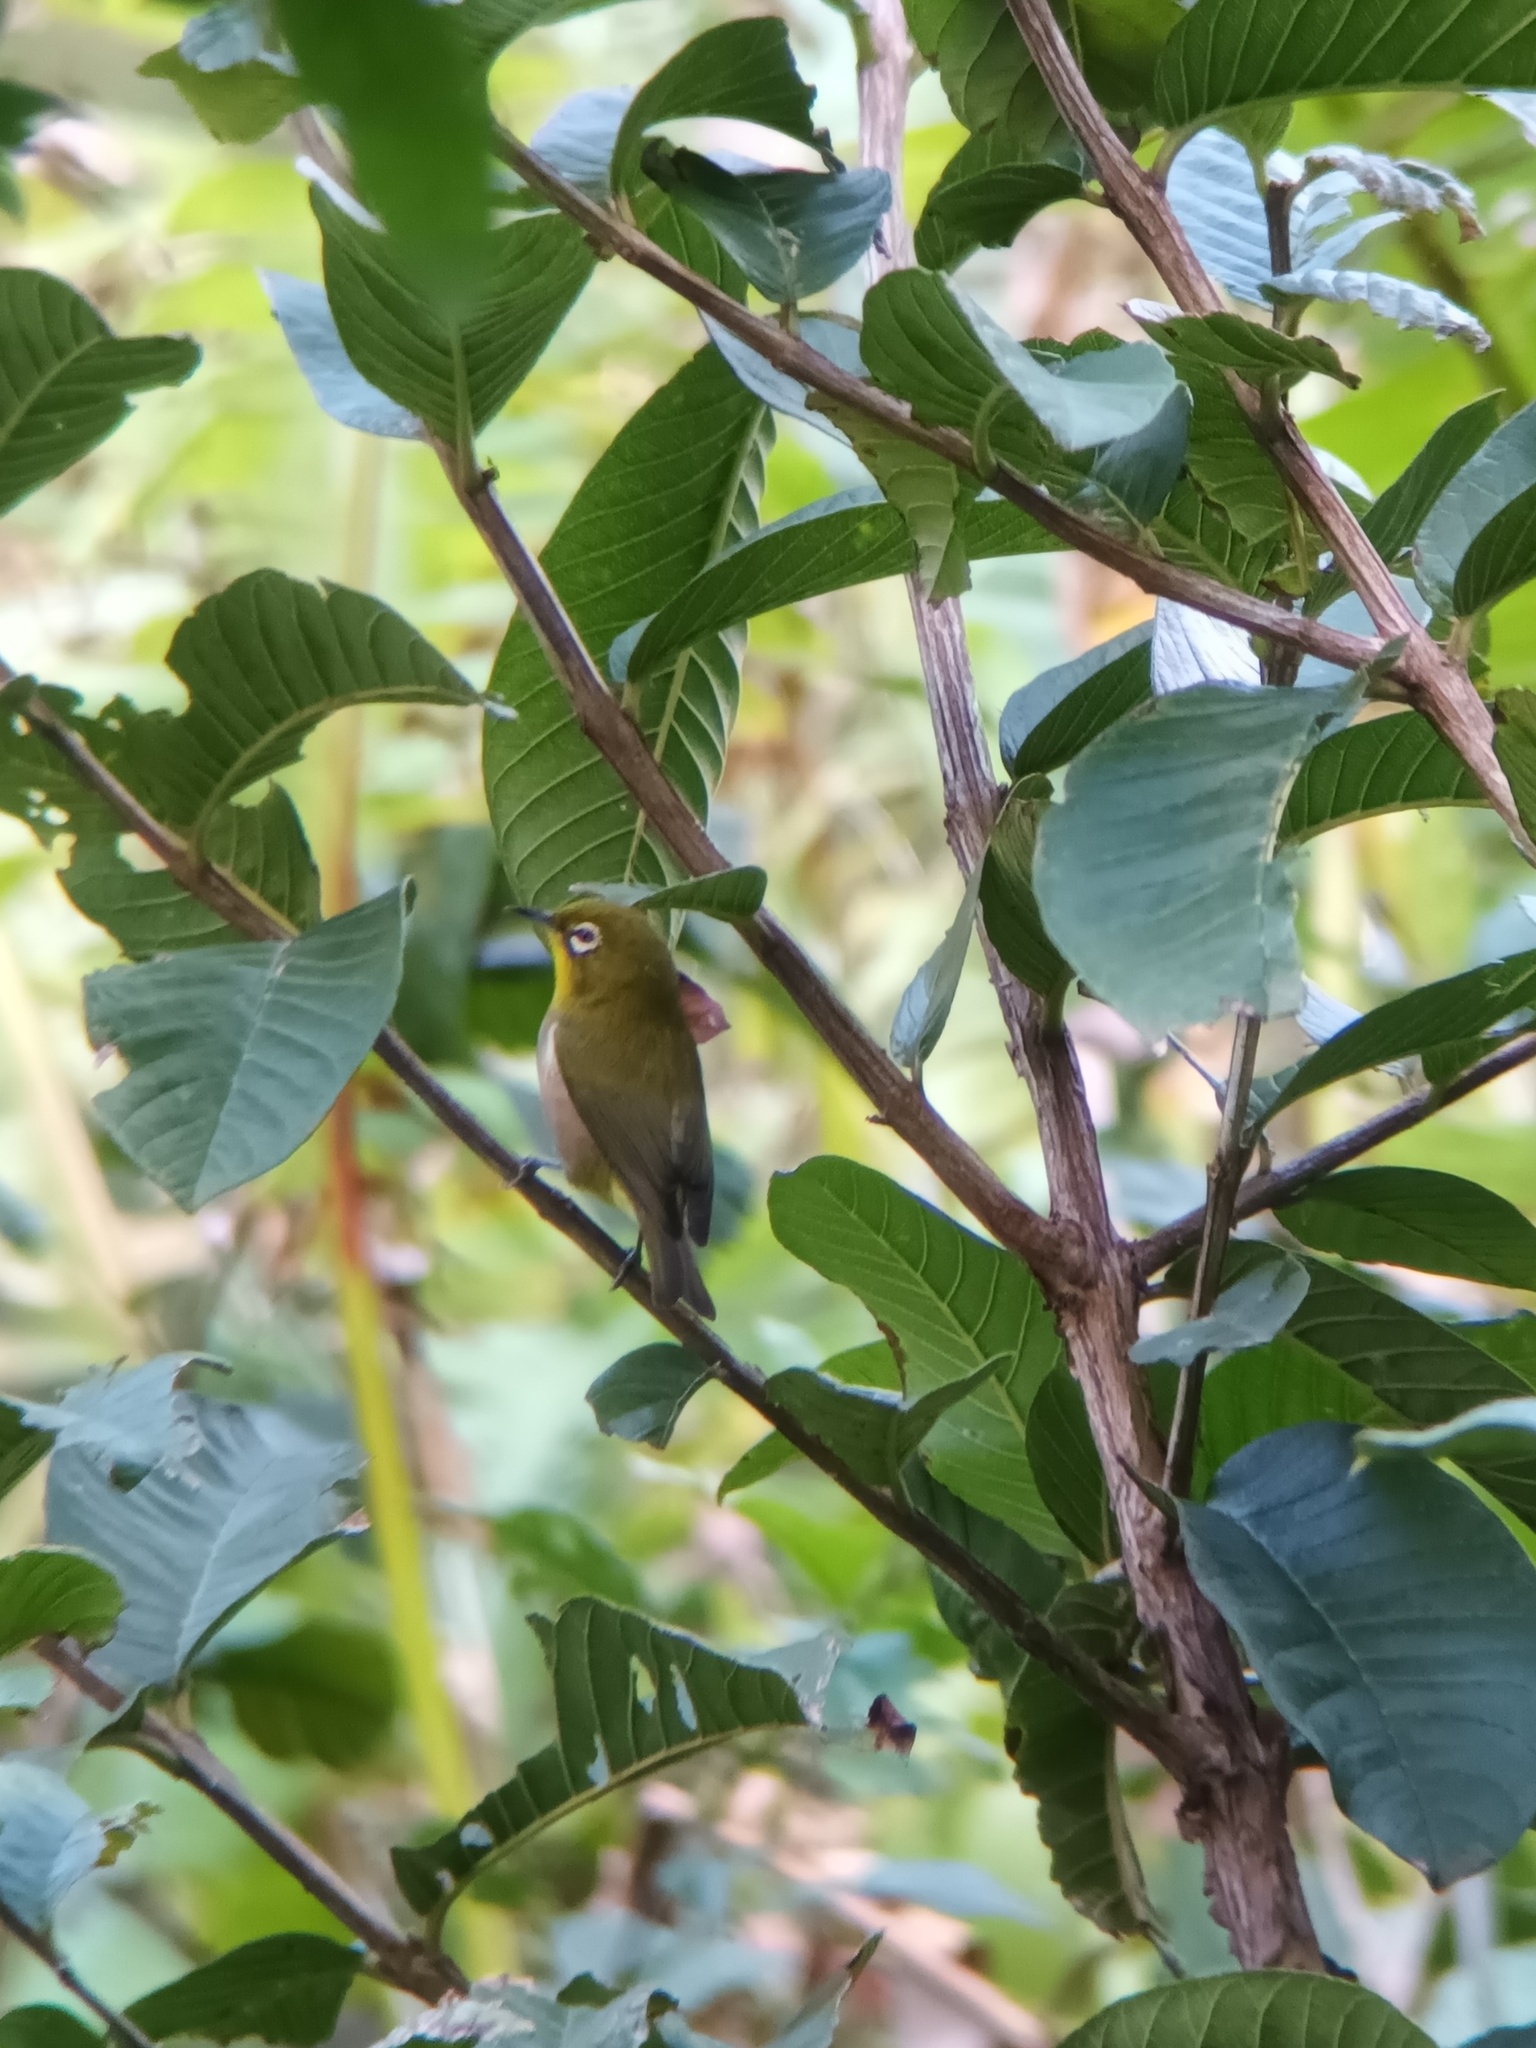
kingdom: Animalia
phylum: Chordata
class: Aves
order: Passeriformes
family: Zosteropidae
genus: Zosterops
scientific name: Zosterops japonicus
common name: Japanese white-eye
